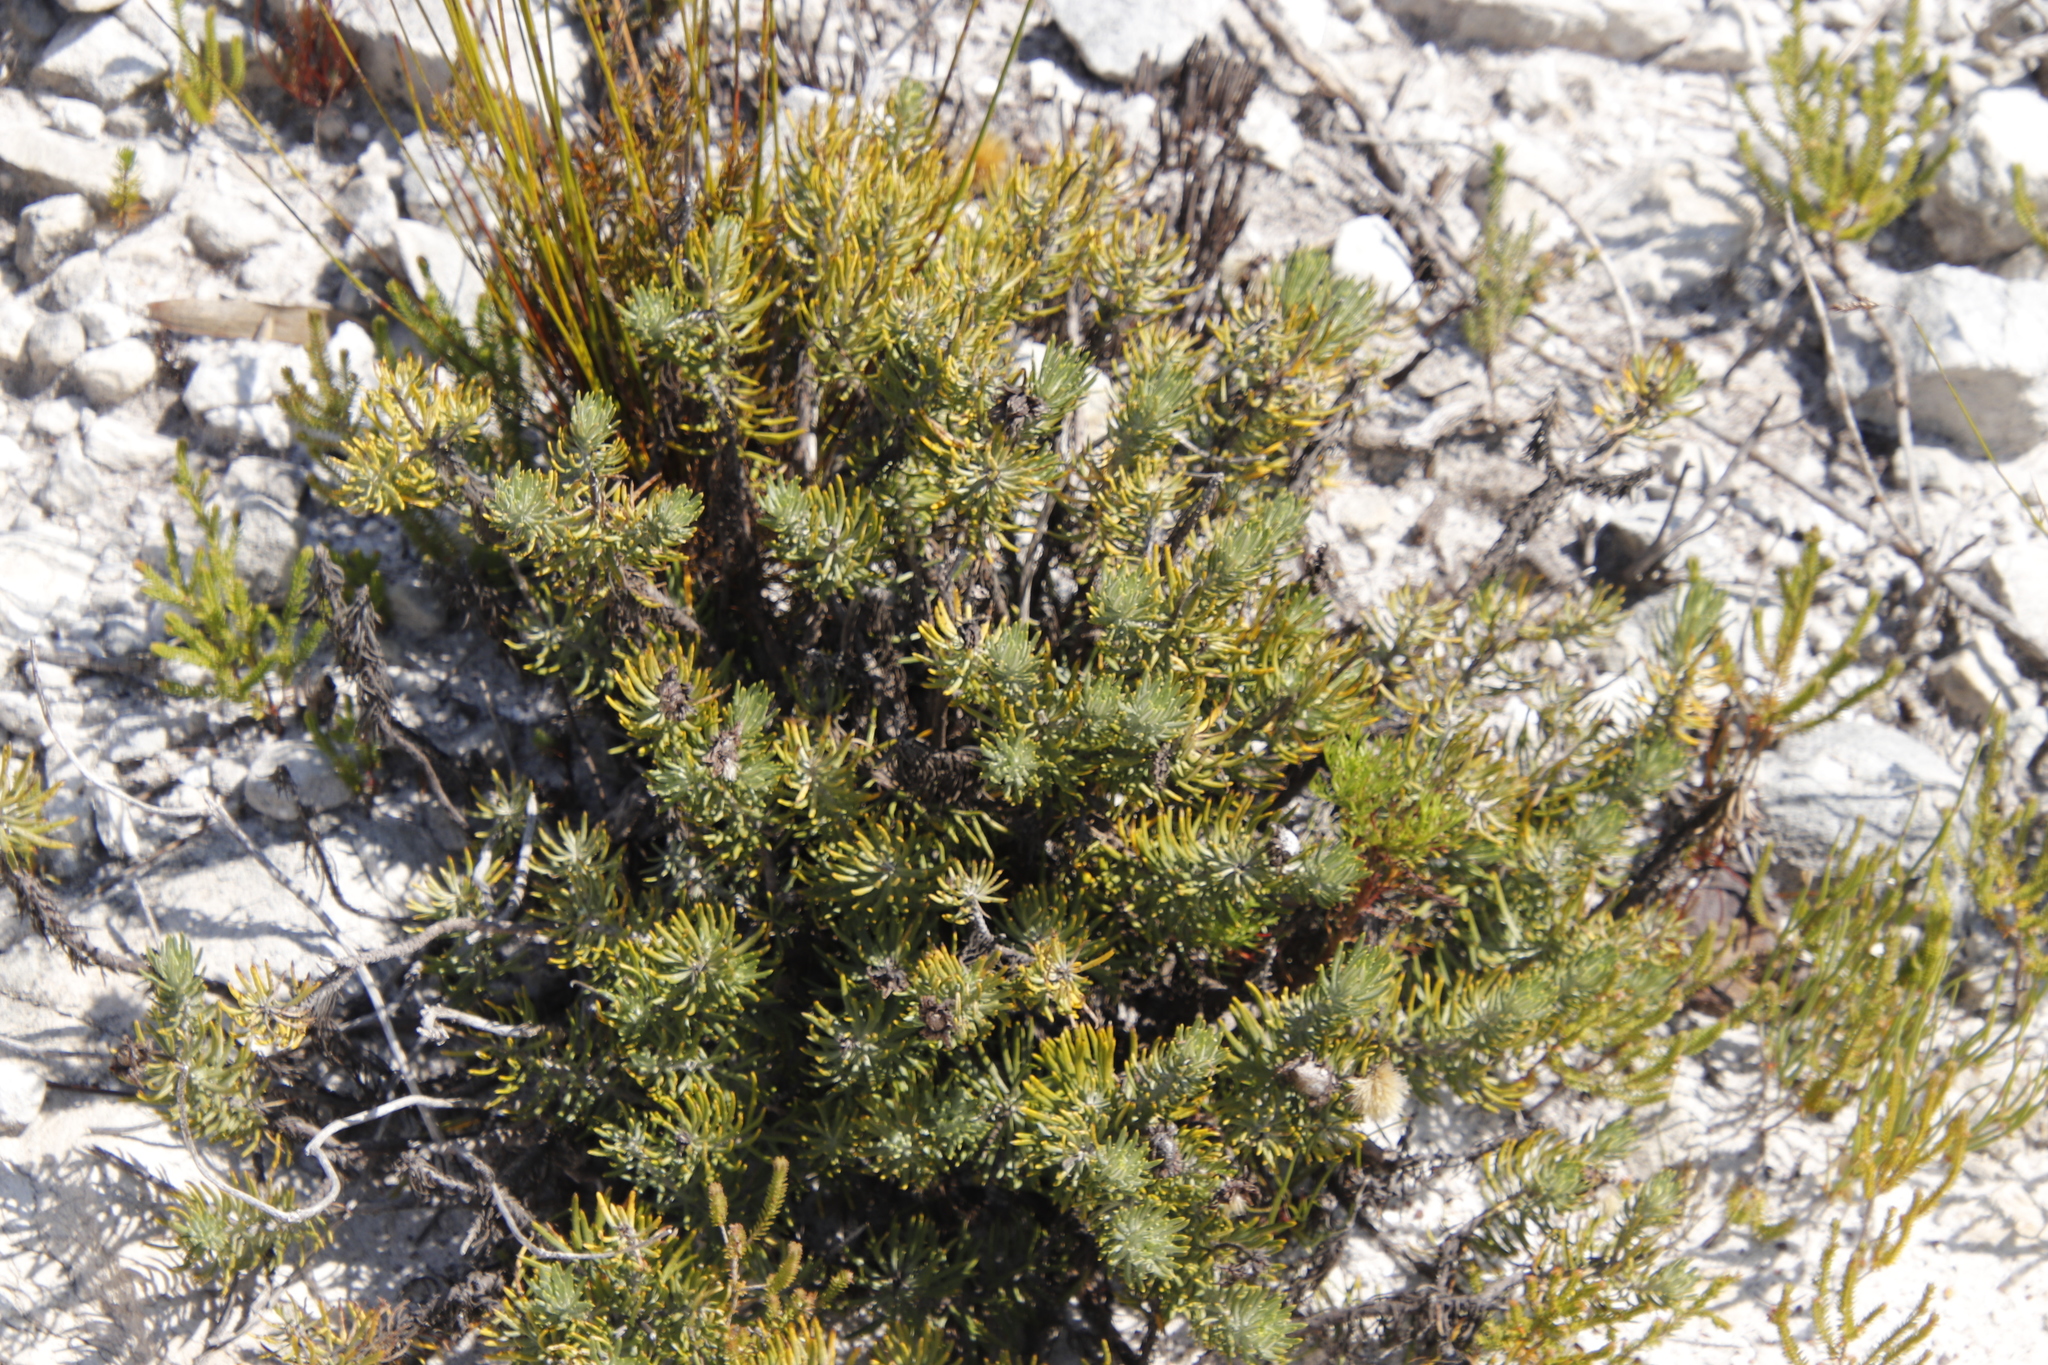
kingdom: Plantae
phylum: Tracheophyta
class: Magnoliopsida
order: Asterales
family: Asteraceae
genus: Heterolepis
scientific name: Heterolepis aliena
